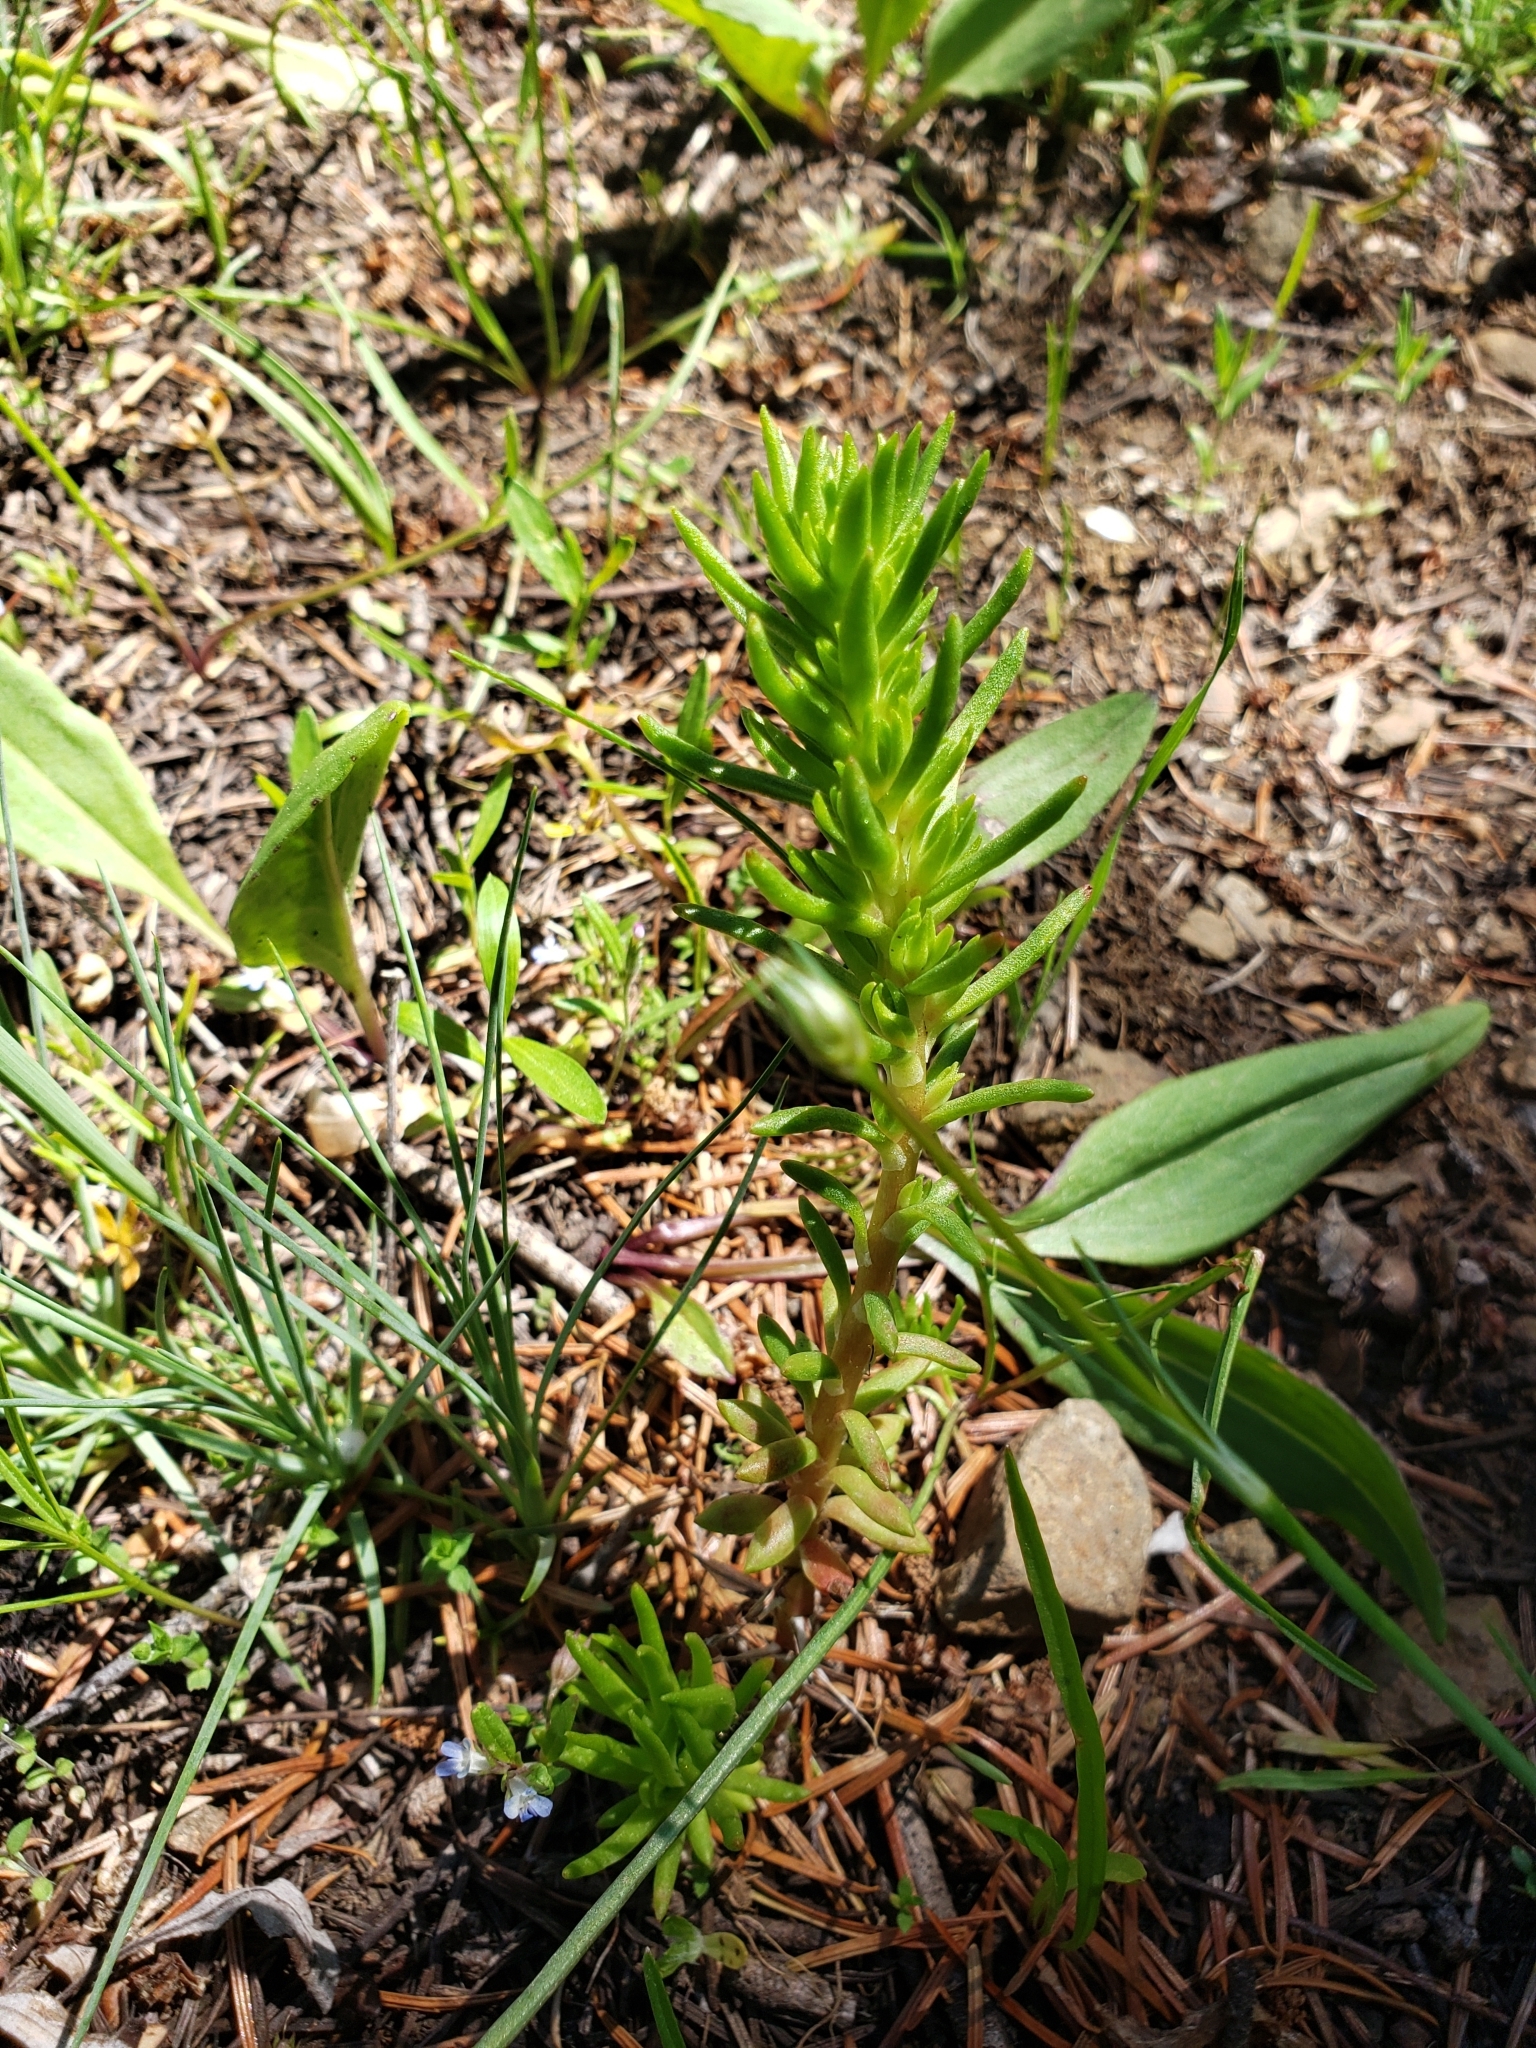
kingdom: Plantae
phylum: Tracheophyta
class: Magnoliopsida
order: Saxifragales
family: Crassulaceae
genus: Sedum
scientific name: Sedum stenopetalum
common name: Narrow-petaled stonecrop
